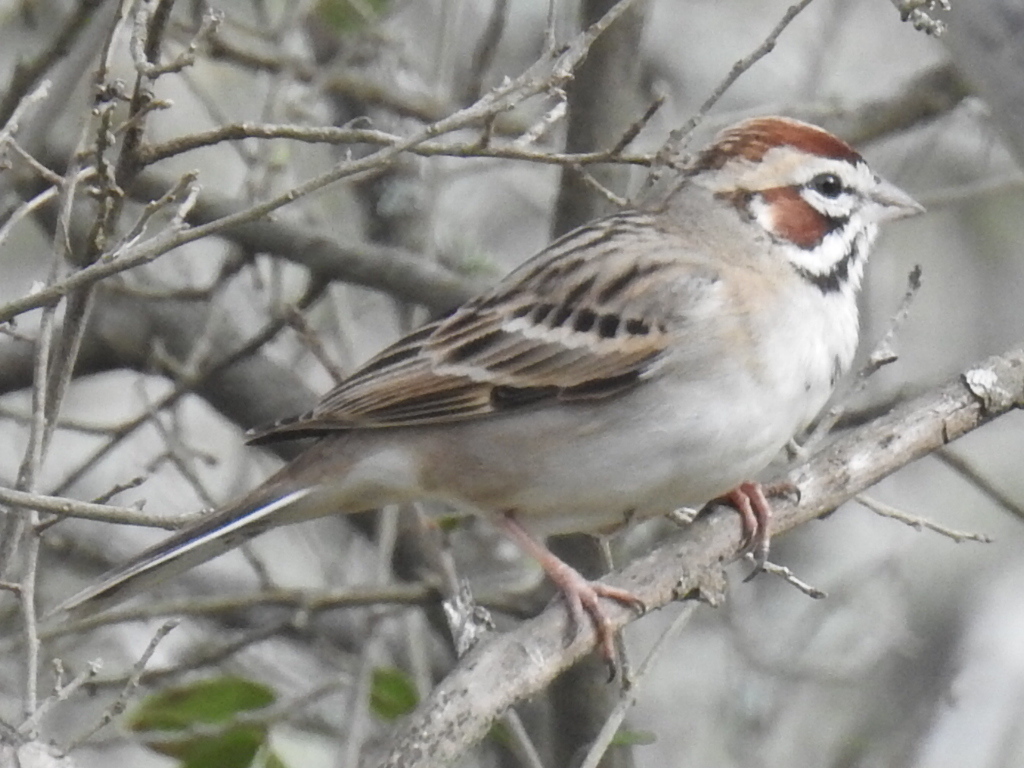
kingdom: Animalia
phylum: Chordata
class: Aves
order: Passeriformes
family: Passerellidae
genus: Chondestes
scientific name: Chondestes grammacus
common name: Lark sparrow
